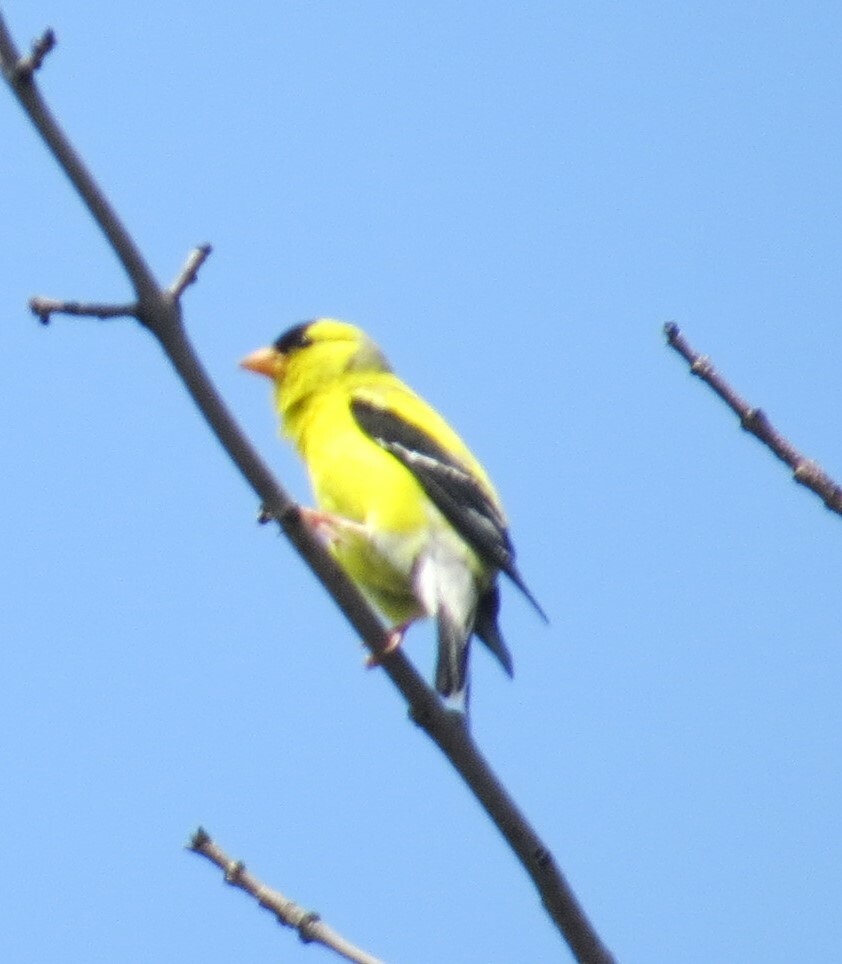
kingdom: Animalia
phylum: Chordata
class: Aves
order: Passeriformes
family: Fringillidae
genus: Spinus
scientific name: Spinus tristis
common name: American goldfinch
